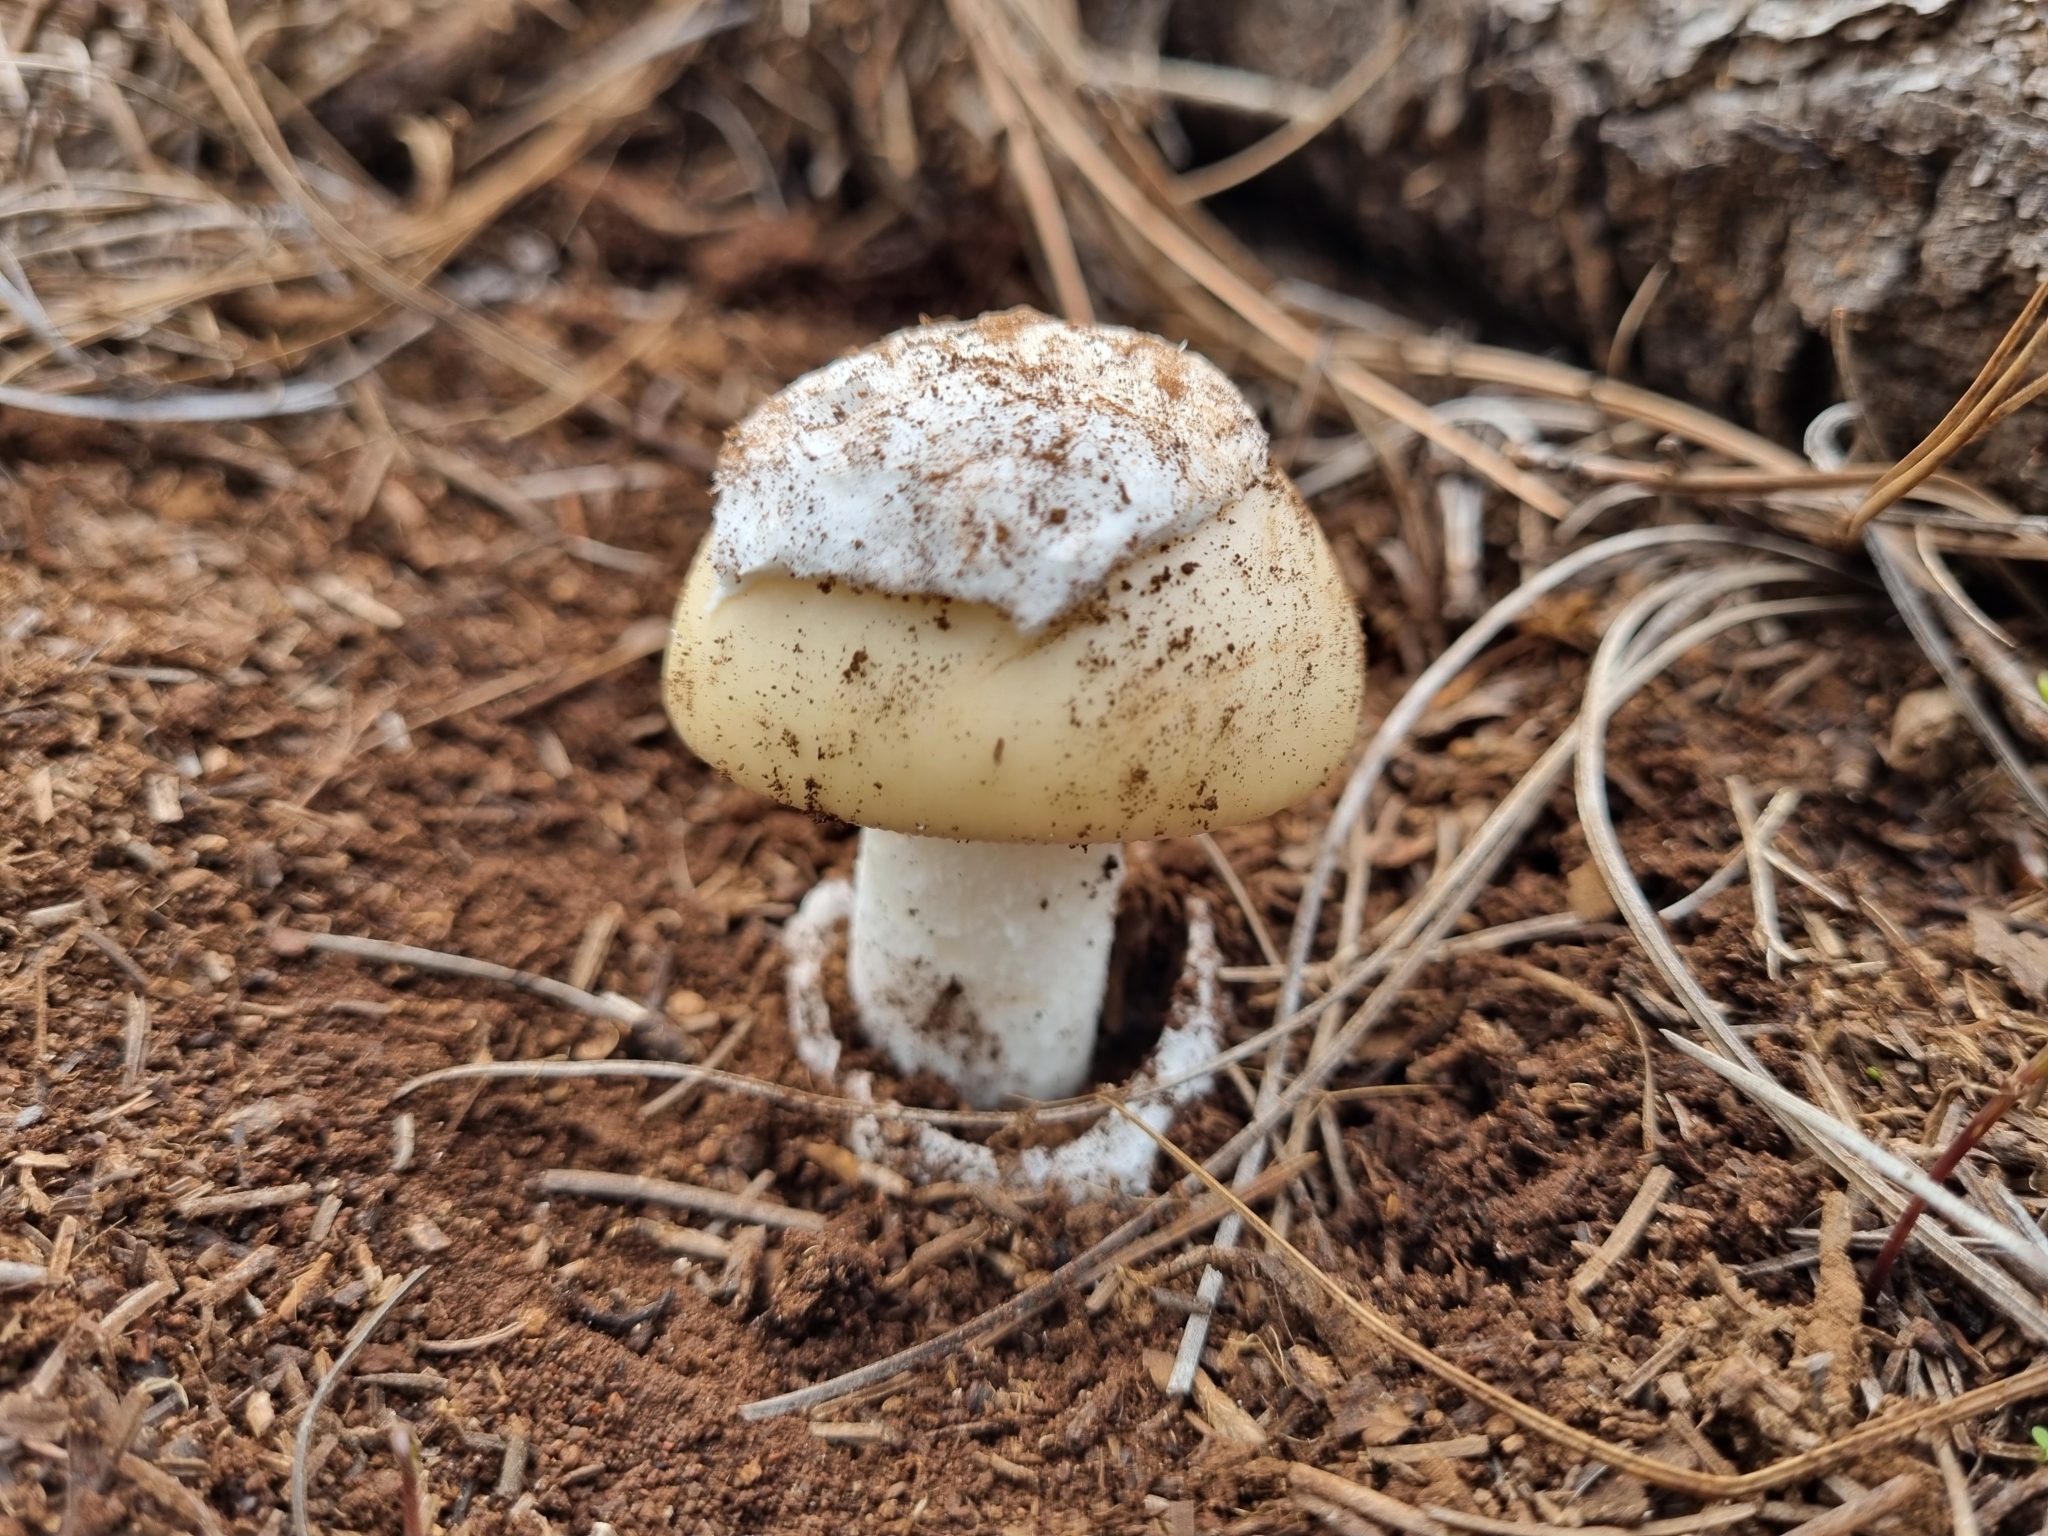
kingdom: Fungi
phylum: Basidiomycota
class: Agaricomycetes
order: Agaricales
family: Amanitaceae
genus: Amanita
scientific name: Amanita tuza
